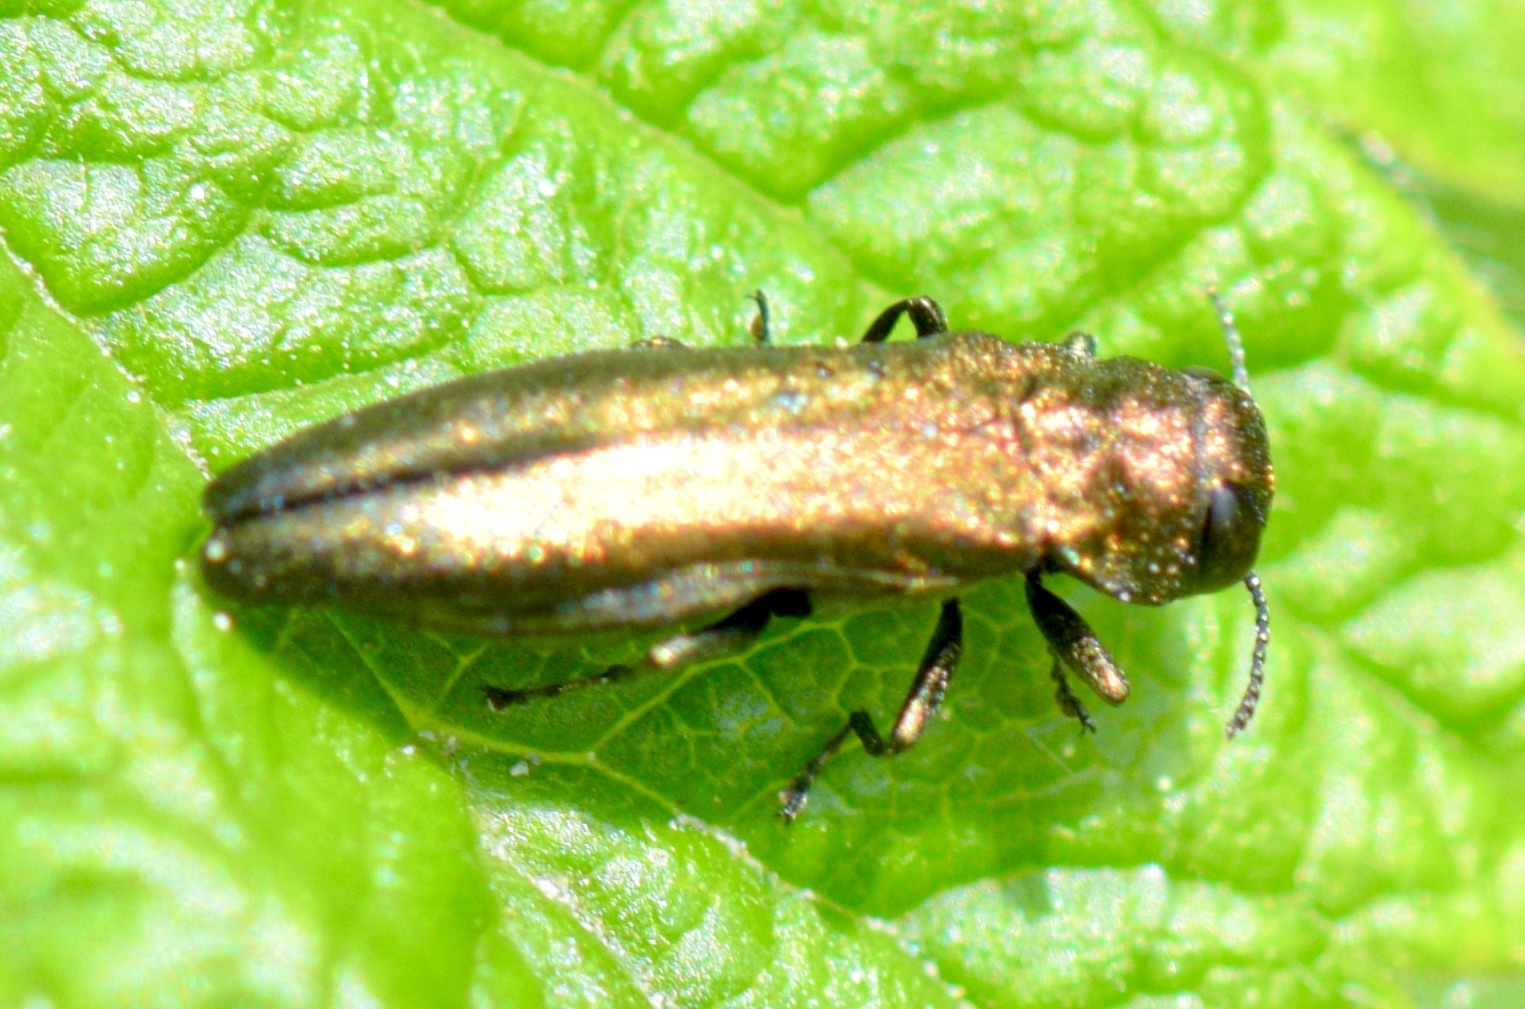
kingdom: Animalia
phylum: Arthropoda
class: Insecta
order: Coleoptera
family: Buprestidae
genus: Agrilus
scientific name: Agrilus cuprescens
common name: Rose stem girdler
